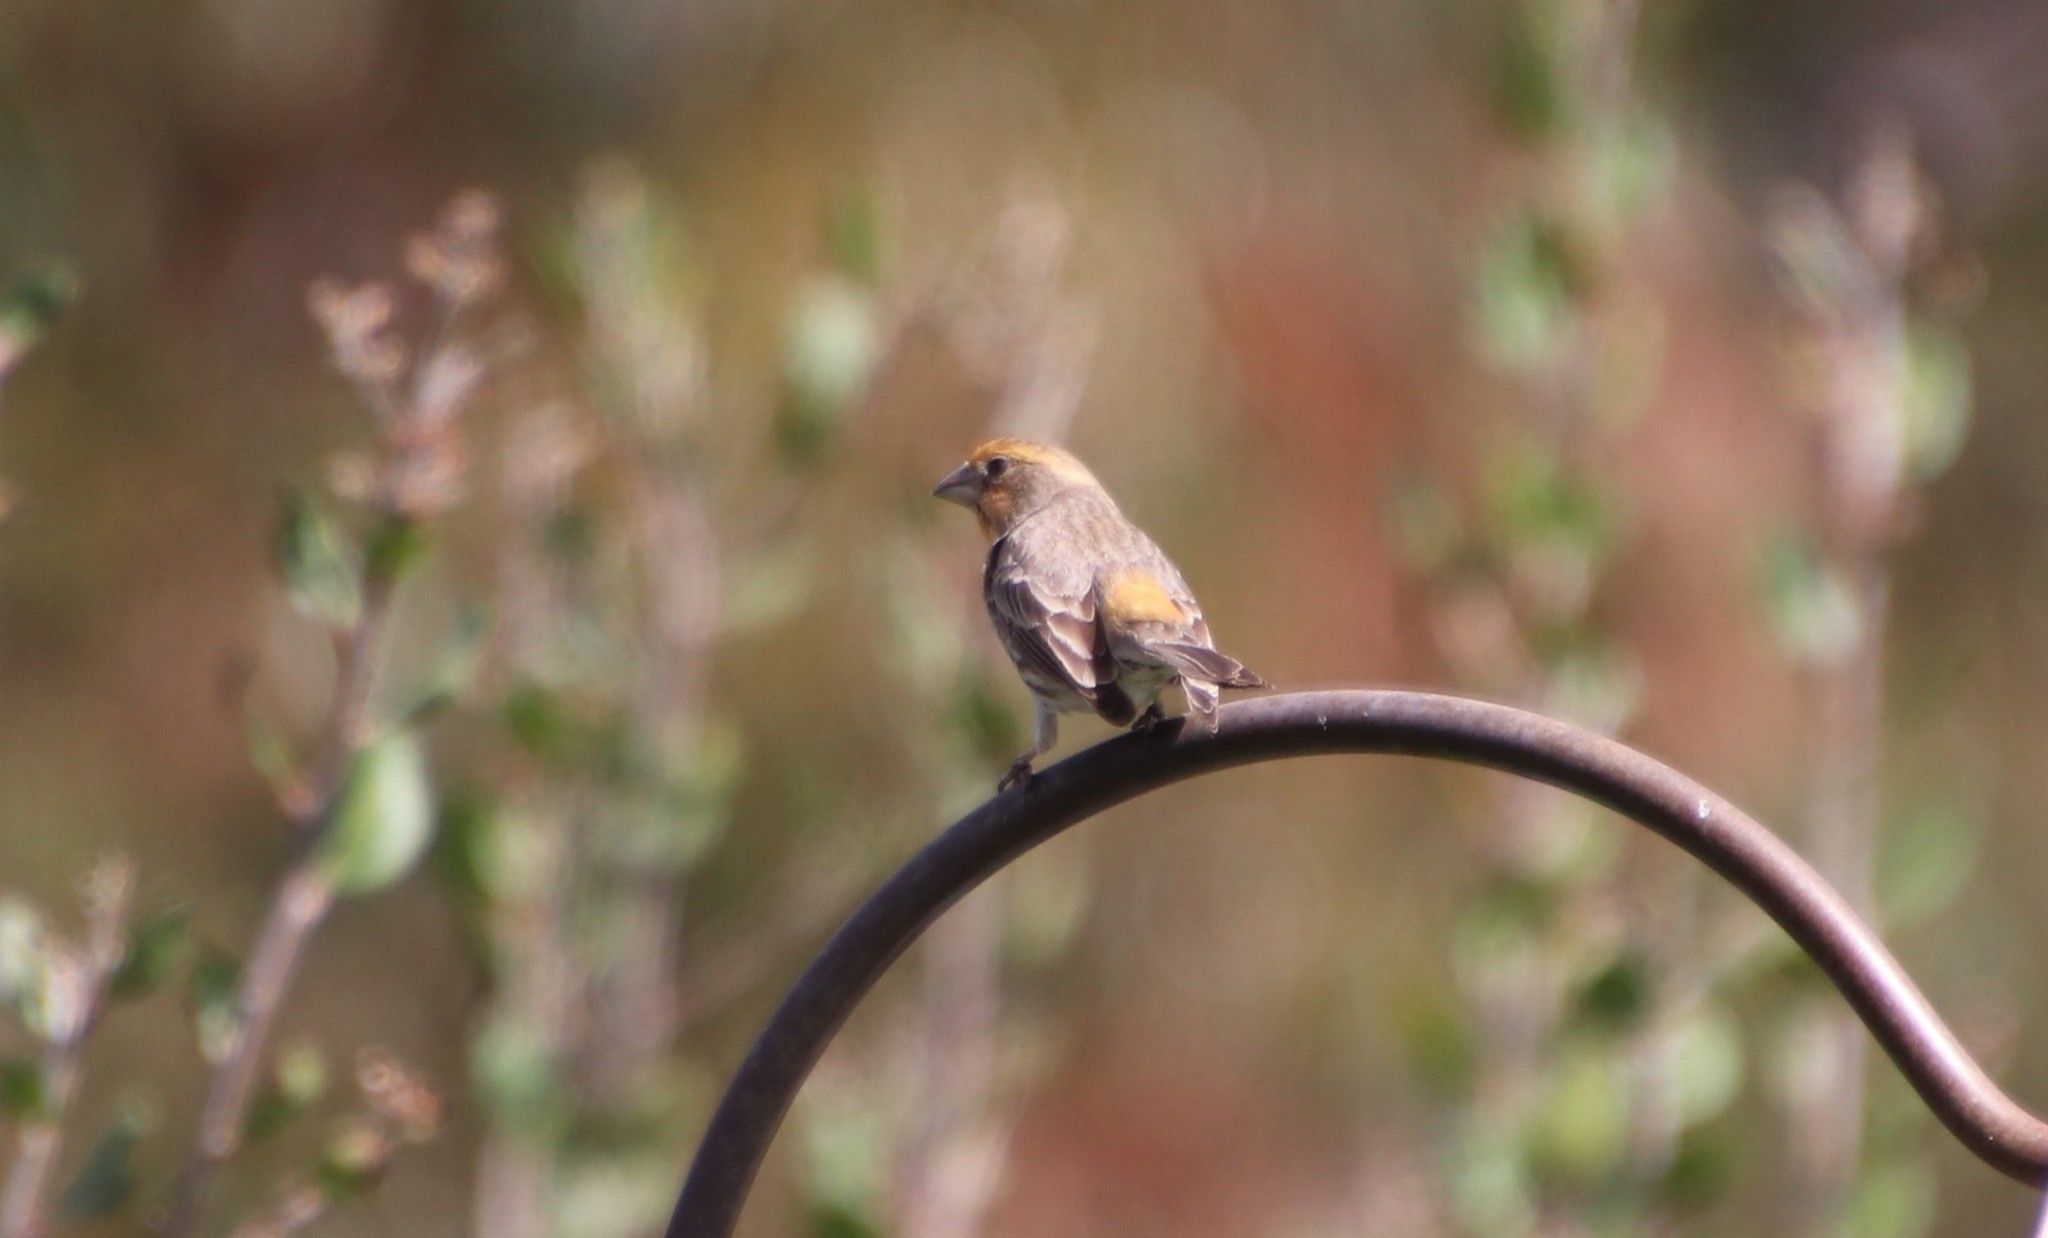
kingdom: Animalia
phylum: Chordata
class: Aves
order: Passeriformes
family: Fringillidae
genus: Haemorhous
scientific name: Haemorhous mexicanus
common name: House finch
